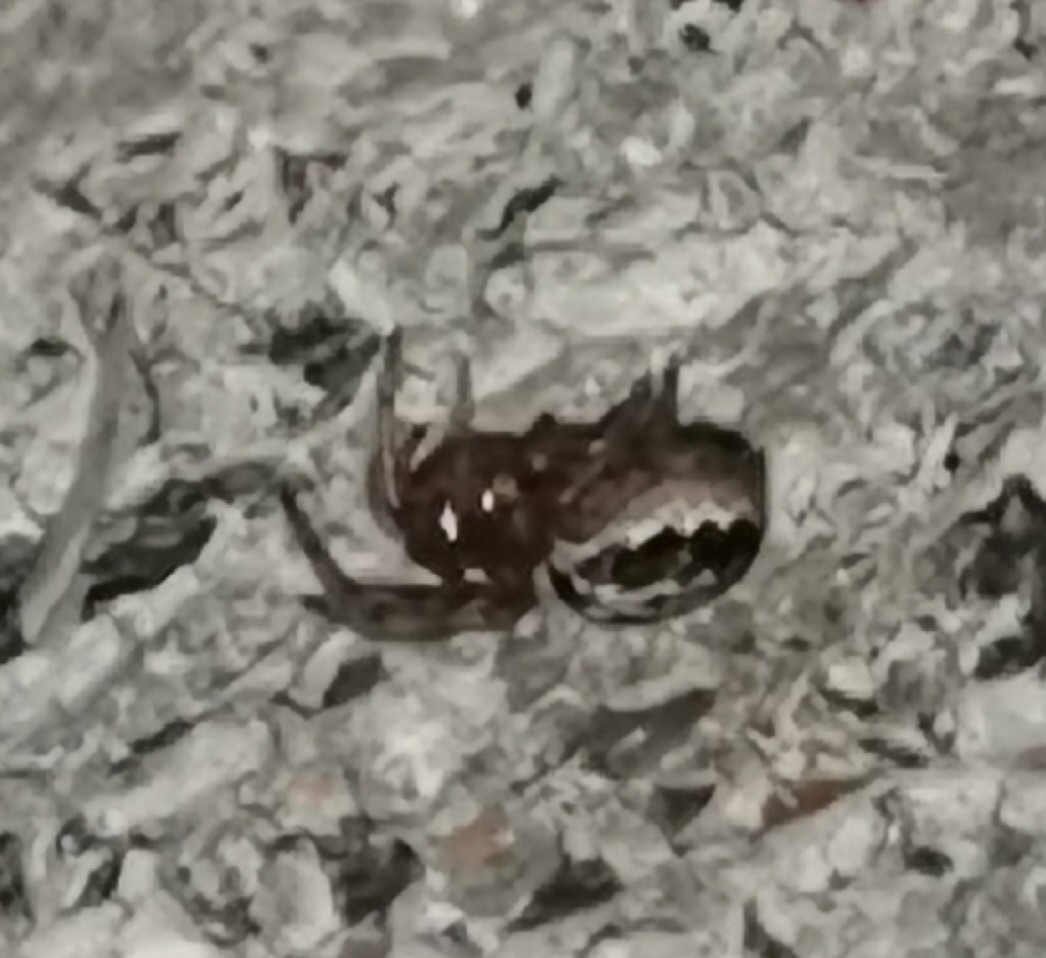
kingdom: Animalia
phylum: Arthropoda
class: Arachnida
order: Araneae
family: Araneidae
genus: Leviellus
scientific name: Leviellus stroemi
